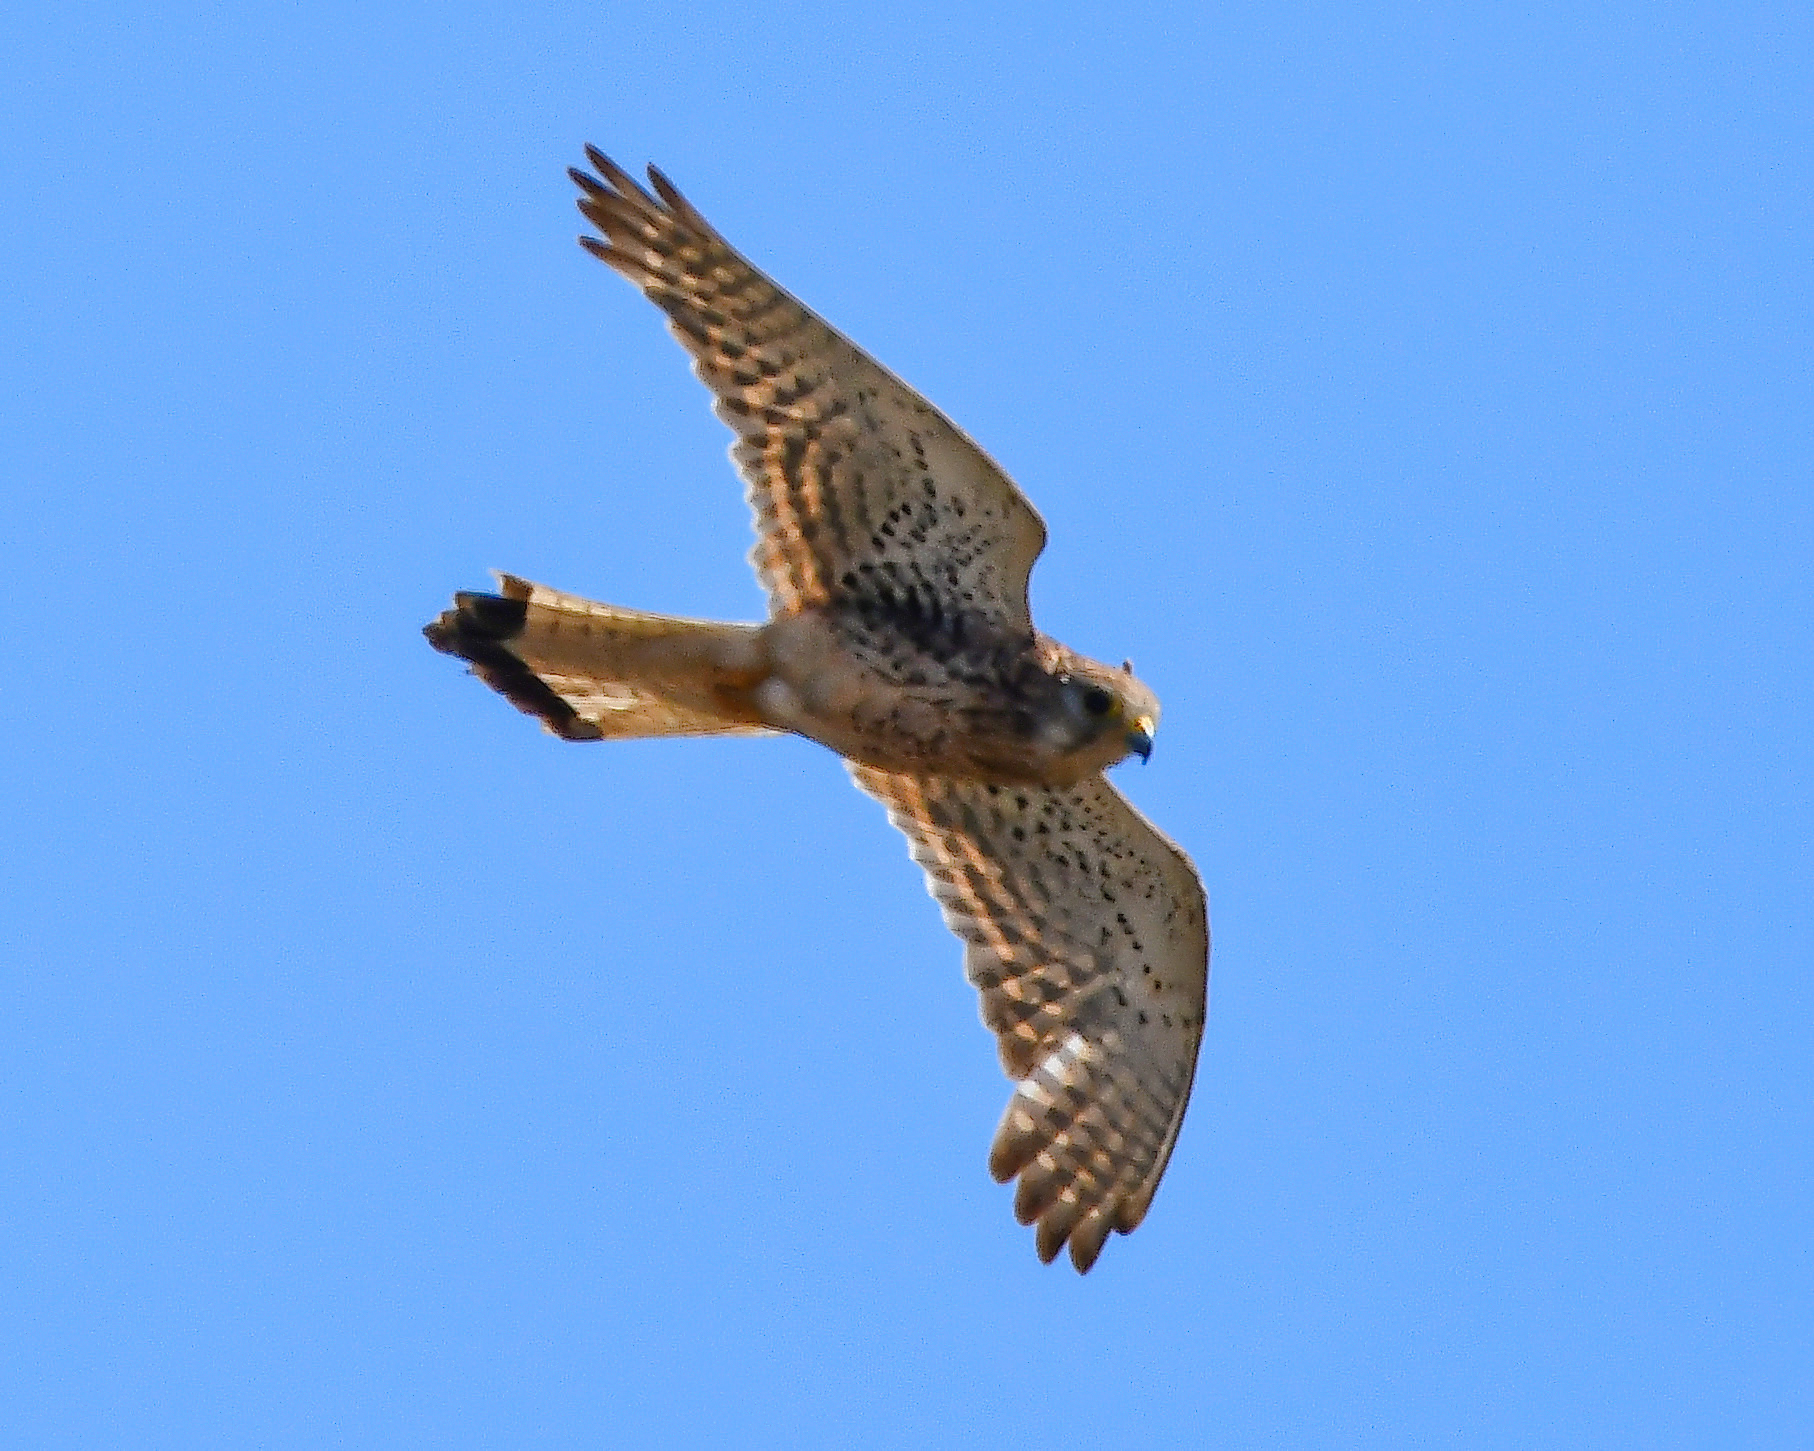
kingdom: Animalia
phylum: Chordata
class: Aves
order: Falconiformes
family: Falconidae
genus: Falco
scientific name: Falco tinnunculus
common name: Common kestrel
